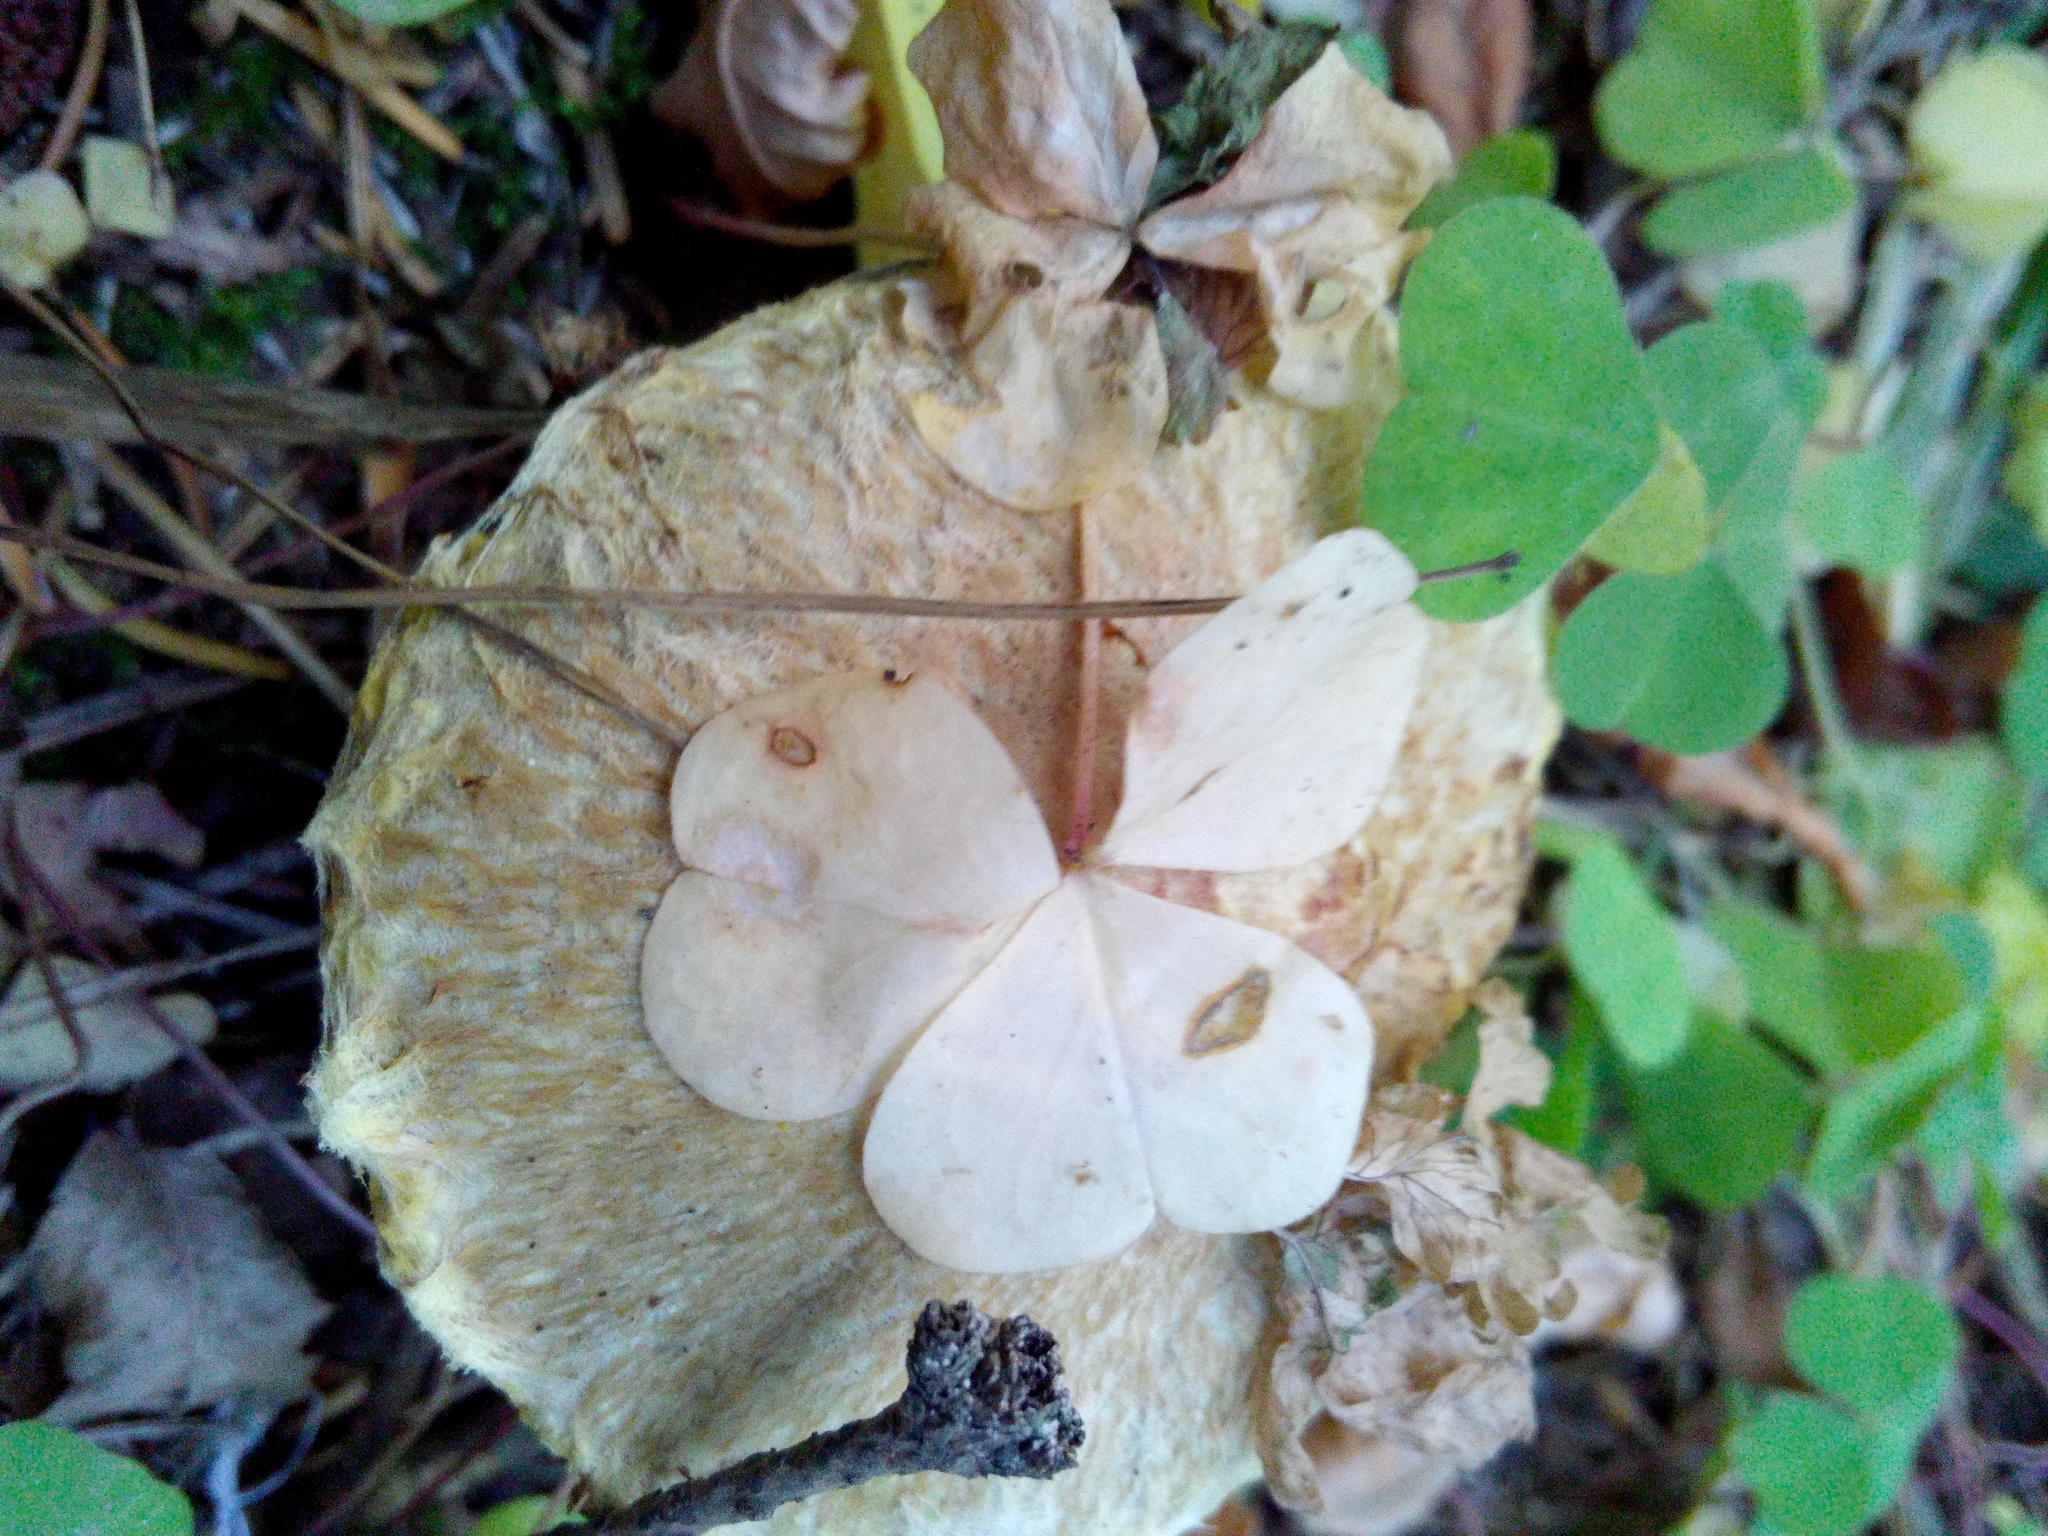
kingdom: Plantae
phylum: Tracheophyta
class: Magnoliopsida
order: Oxalidales
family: Oxalidaceae
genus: Oxalis
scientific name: Oxalis acetosella
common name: Wood-sorrel
